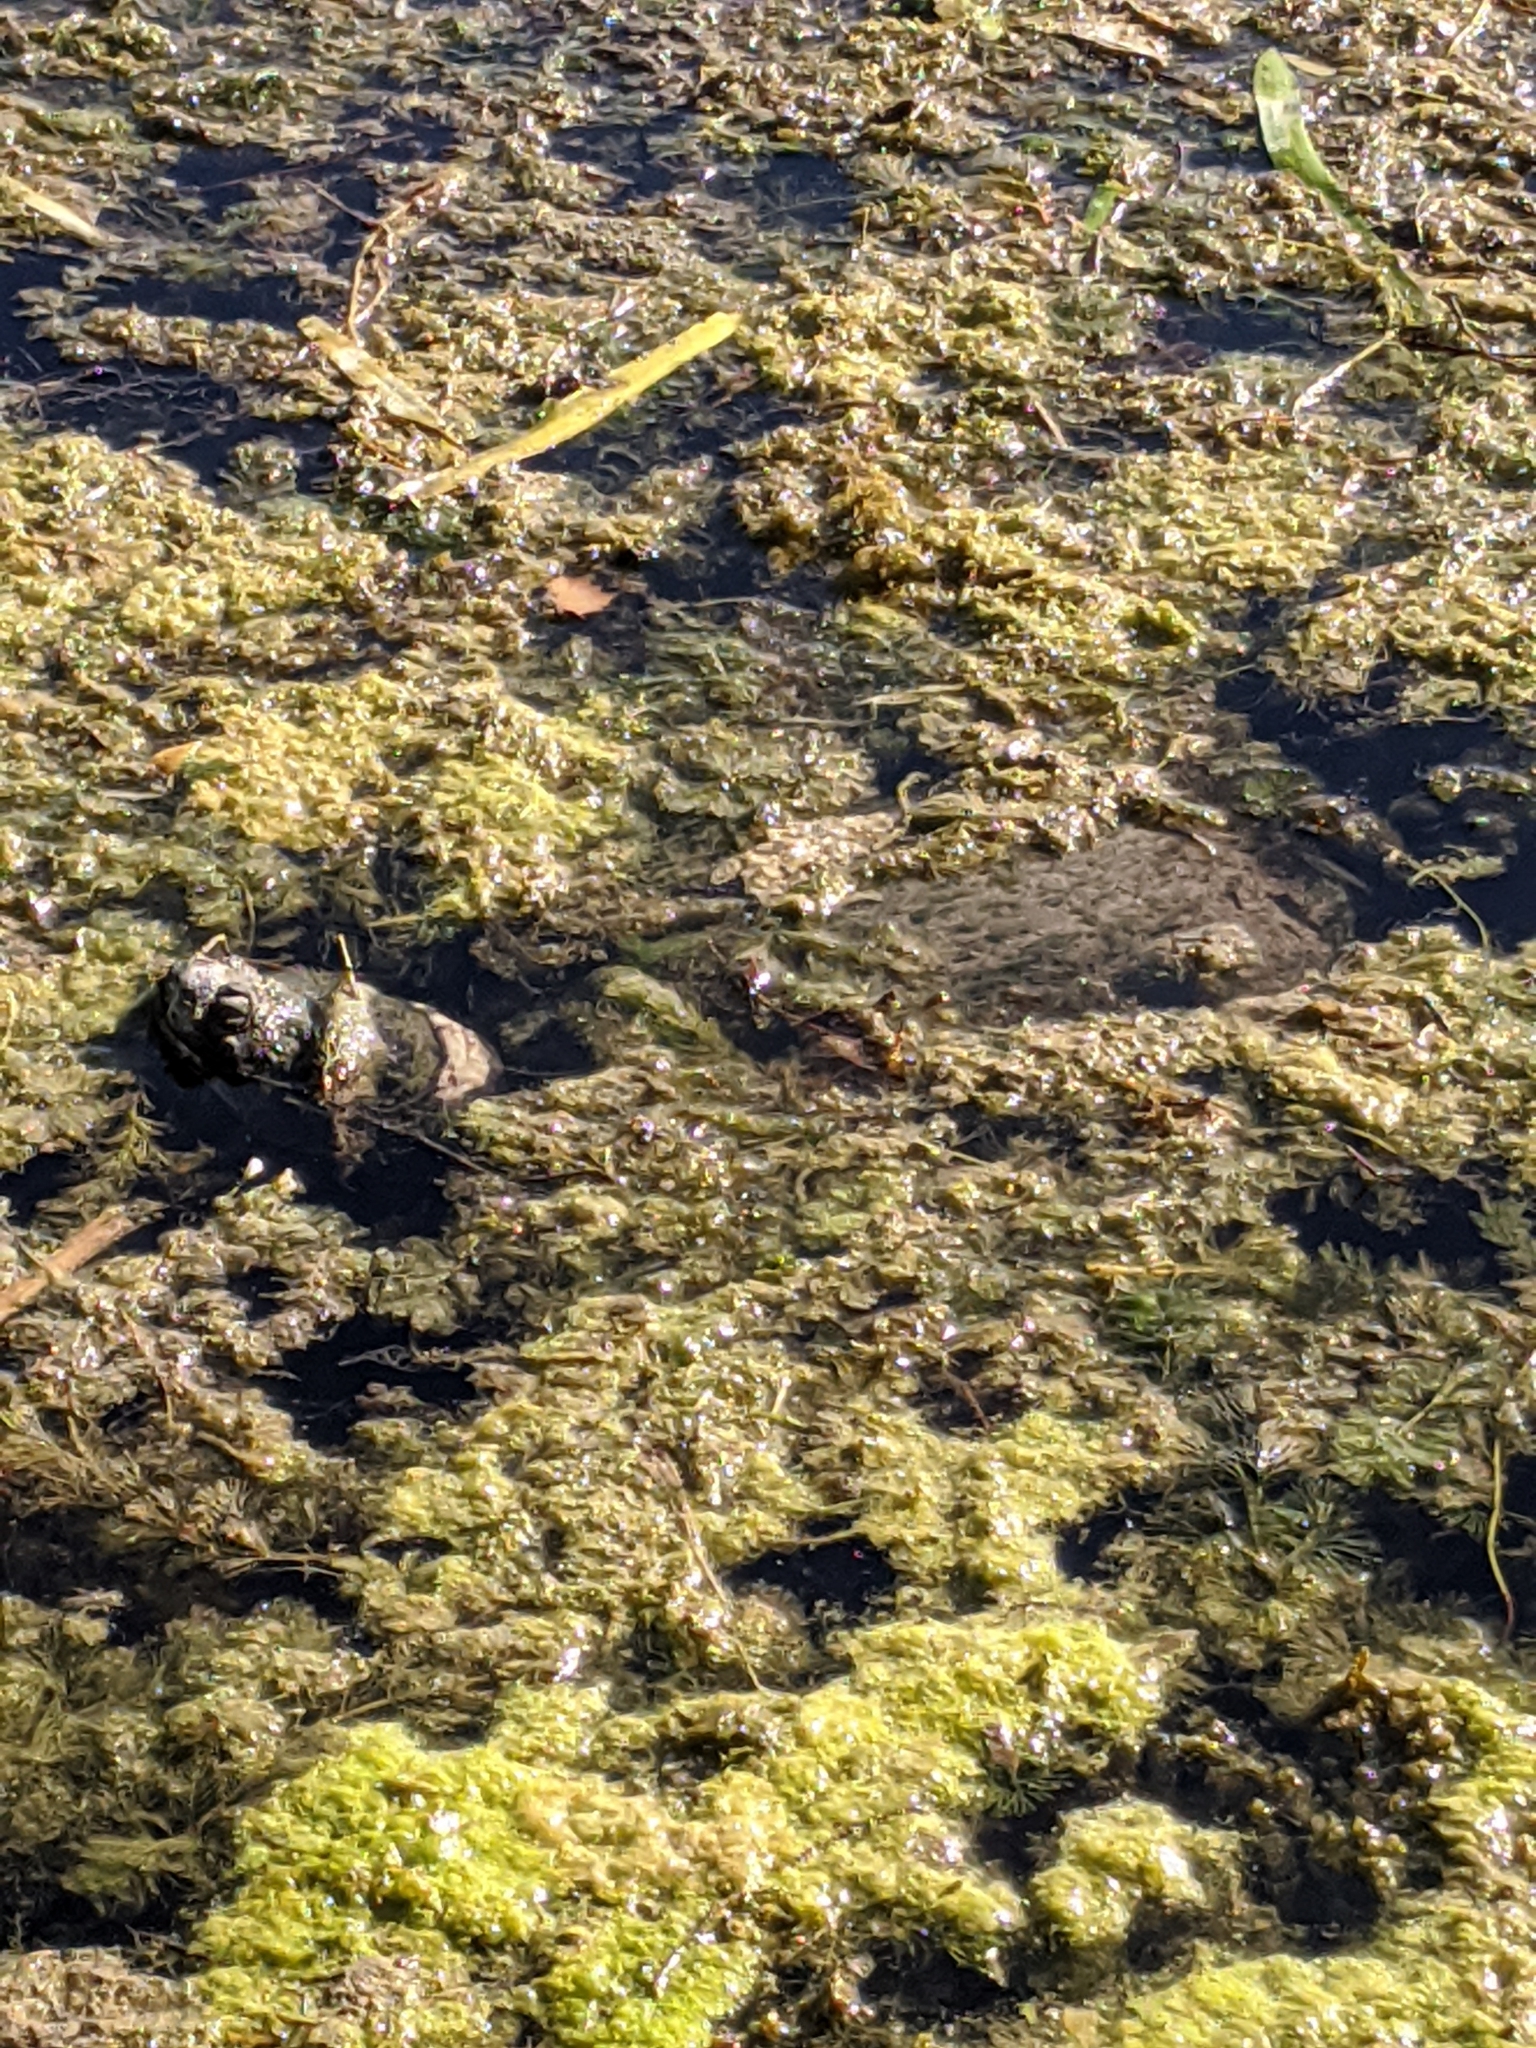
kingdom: Animalia
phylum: Chordata
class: Testudines
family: Chelydridae
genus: Chelydra
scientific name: Chelydra serpentina
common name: Common snapping turtle
